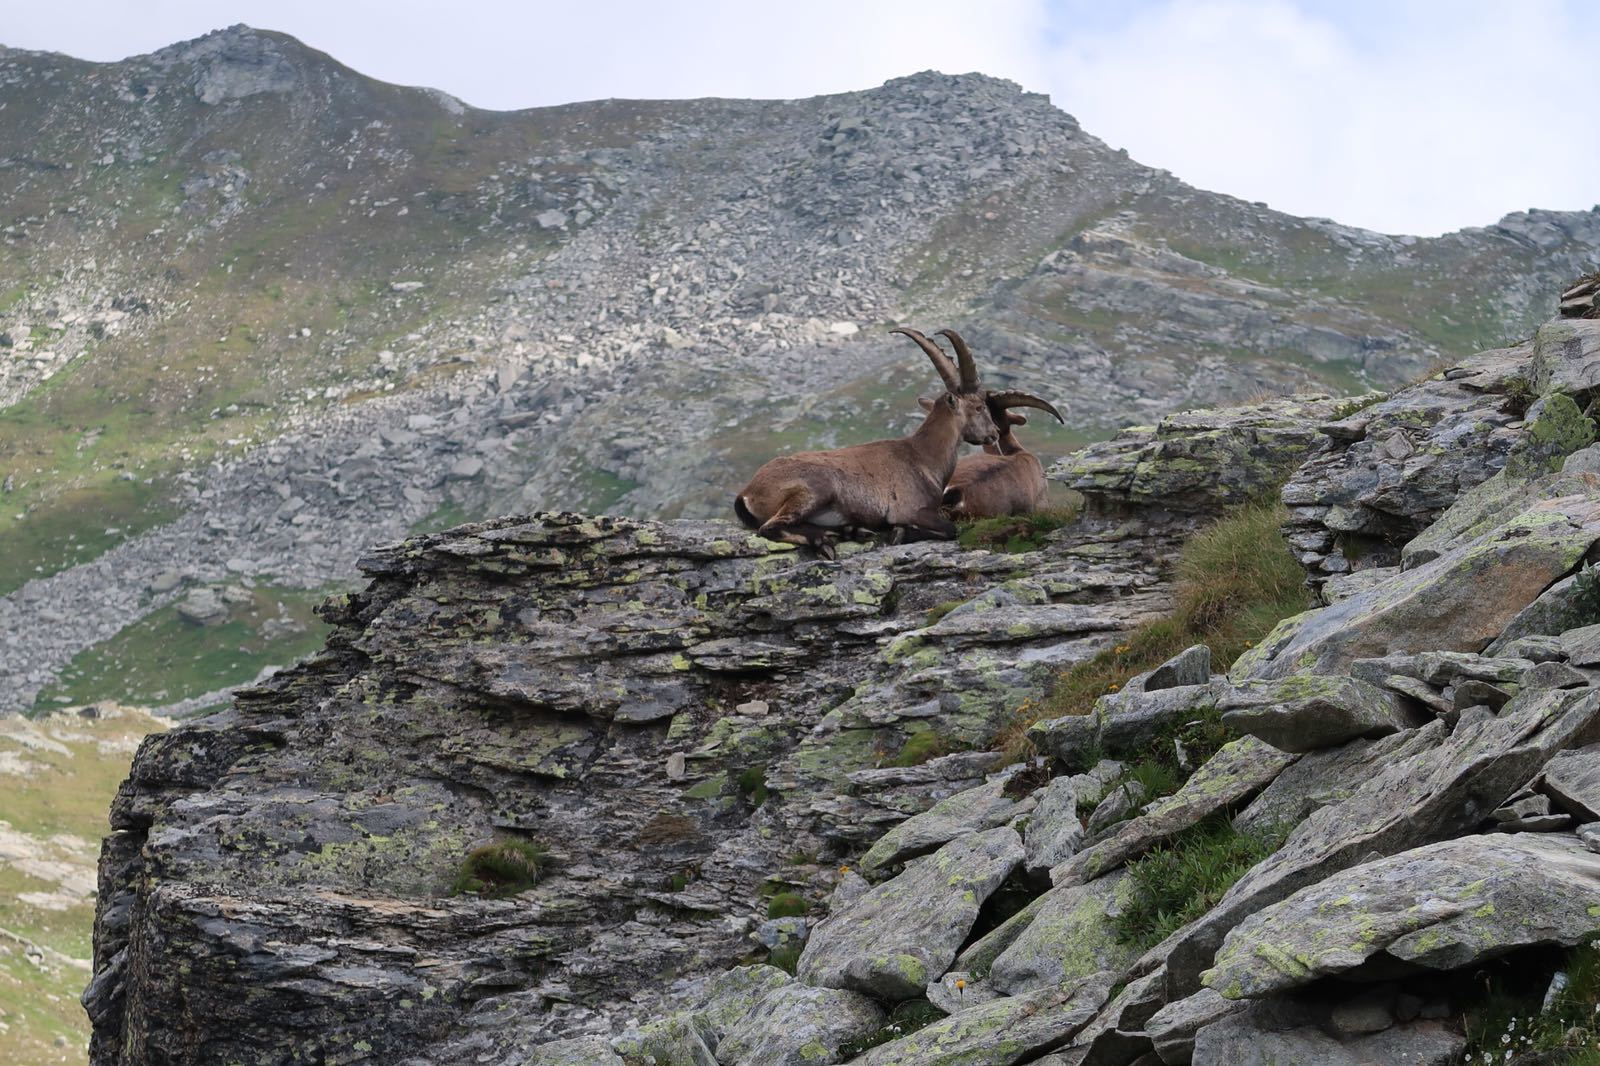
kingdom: Animalia
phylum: Chordata
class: Mammalia
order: Artiodactyla
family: Bovidae
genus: Capra
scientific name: Capra ibex
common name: Alpine ibex
